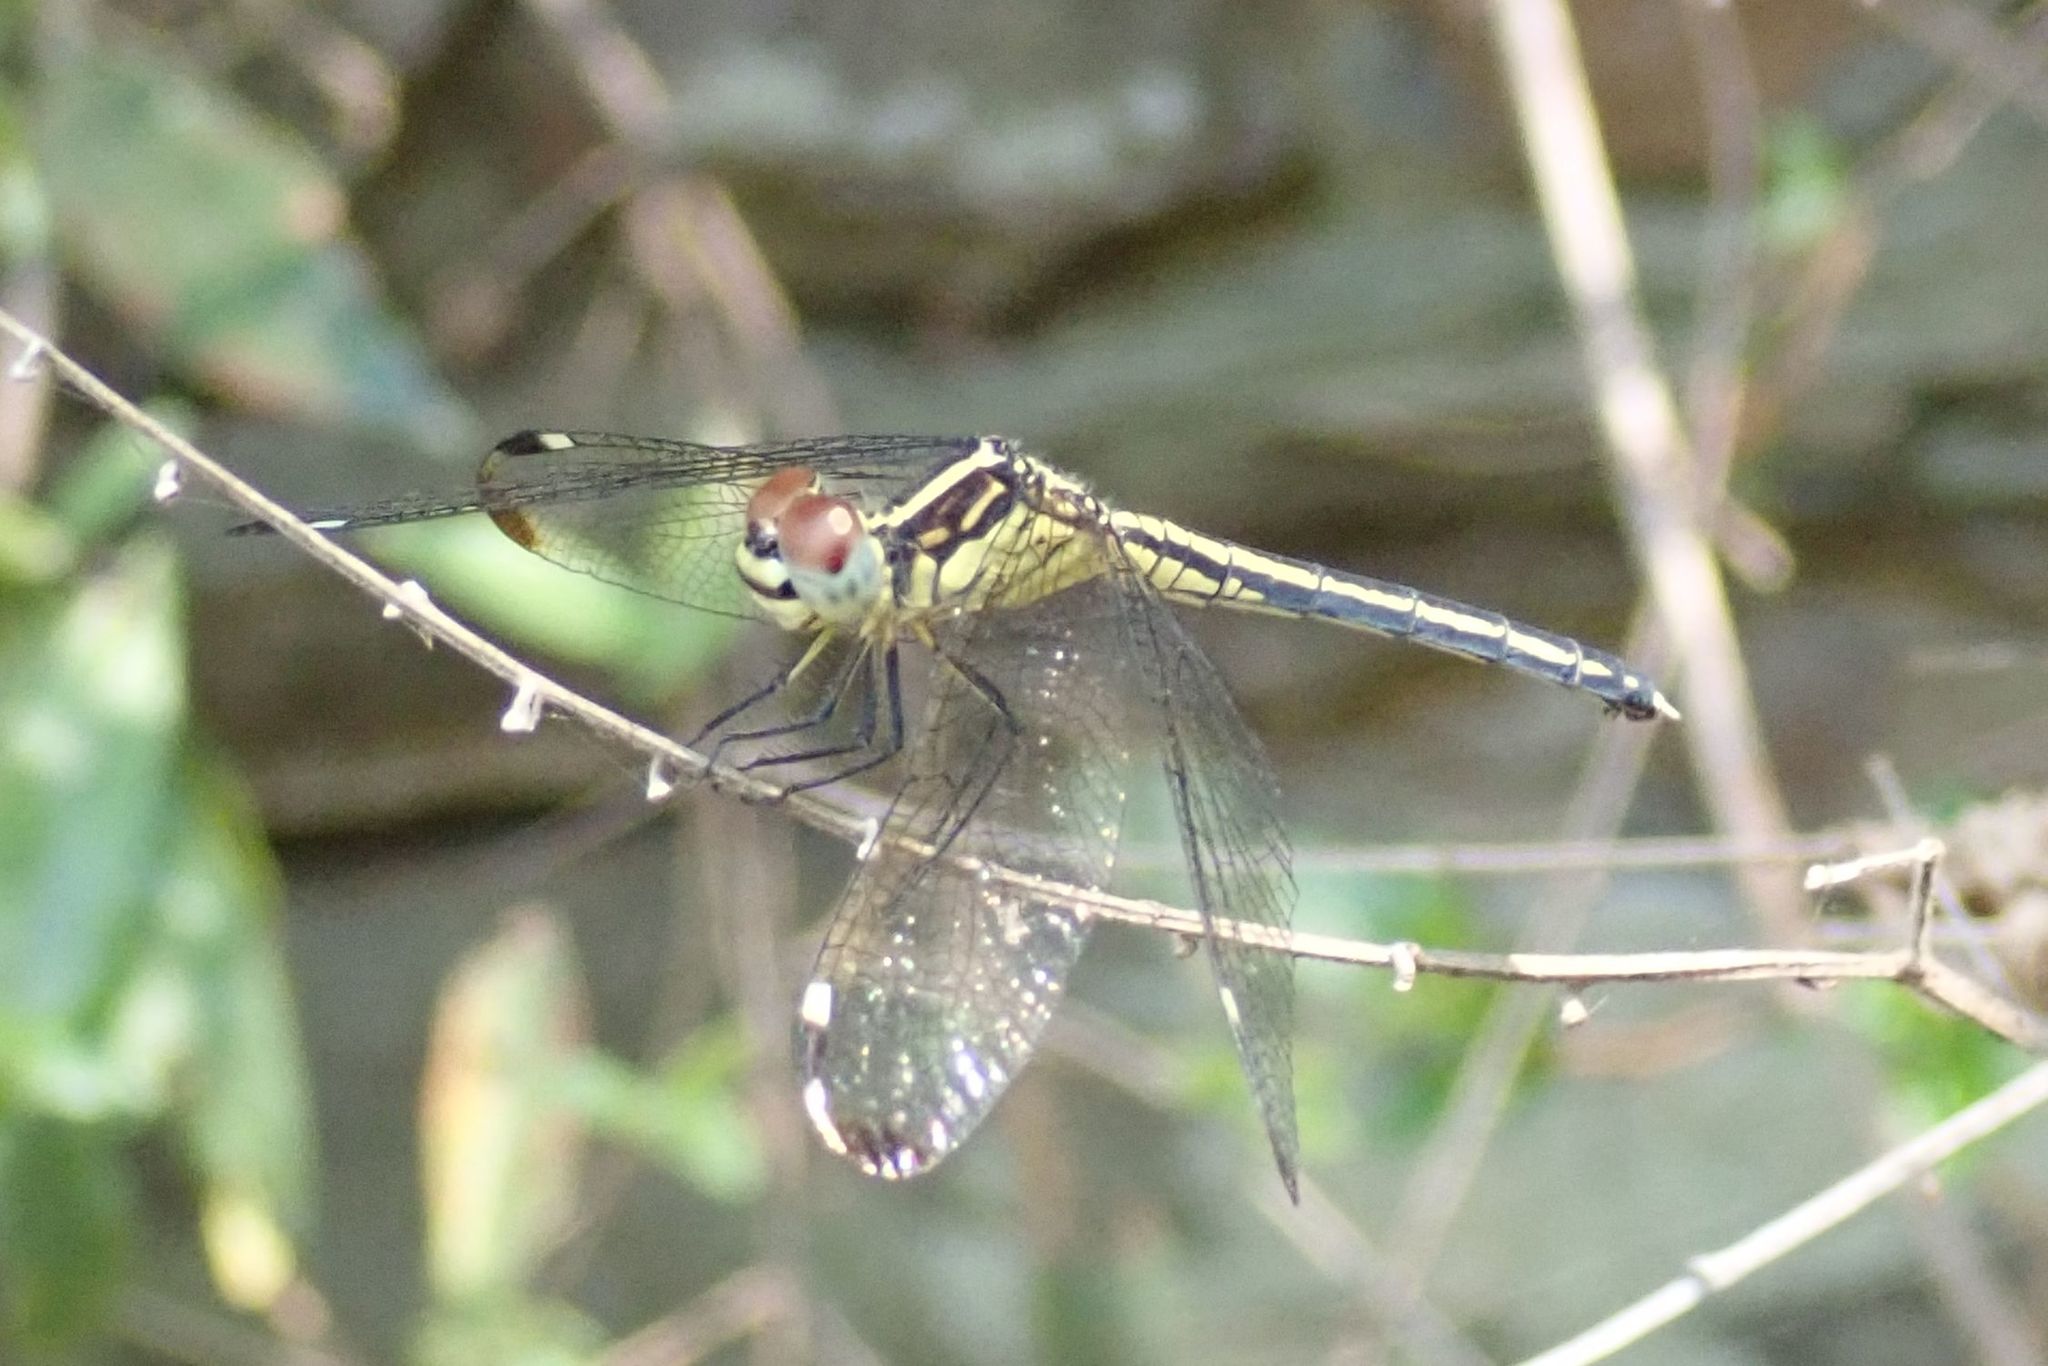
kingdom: Animalia
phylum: Arthropoda
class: Insecta
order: Odonata
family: Libellulidae
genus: Hemistigma
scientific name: Hemistigma albipunctum
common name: African pied-spot
